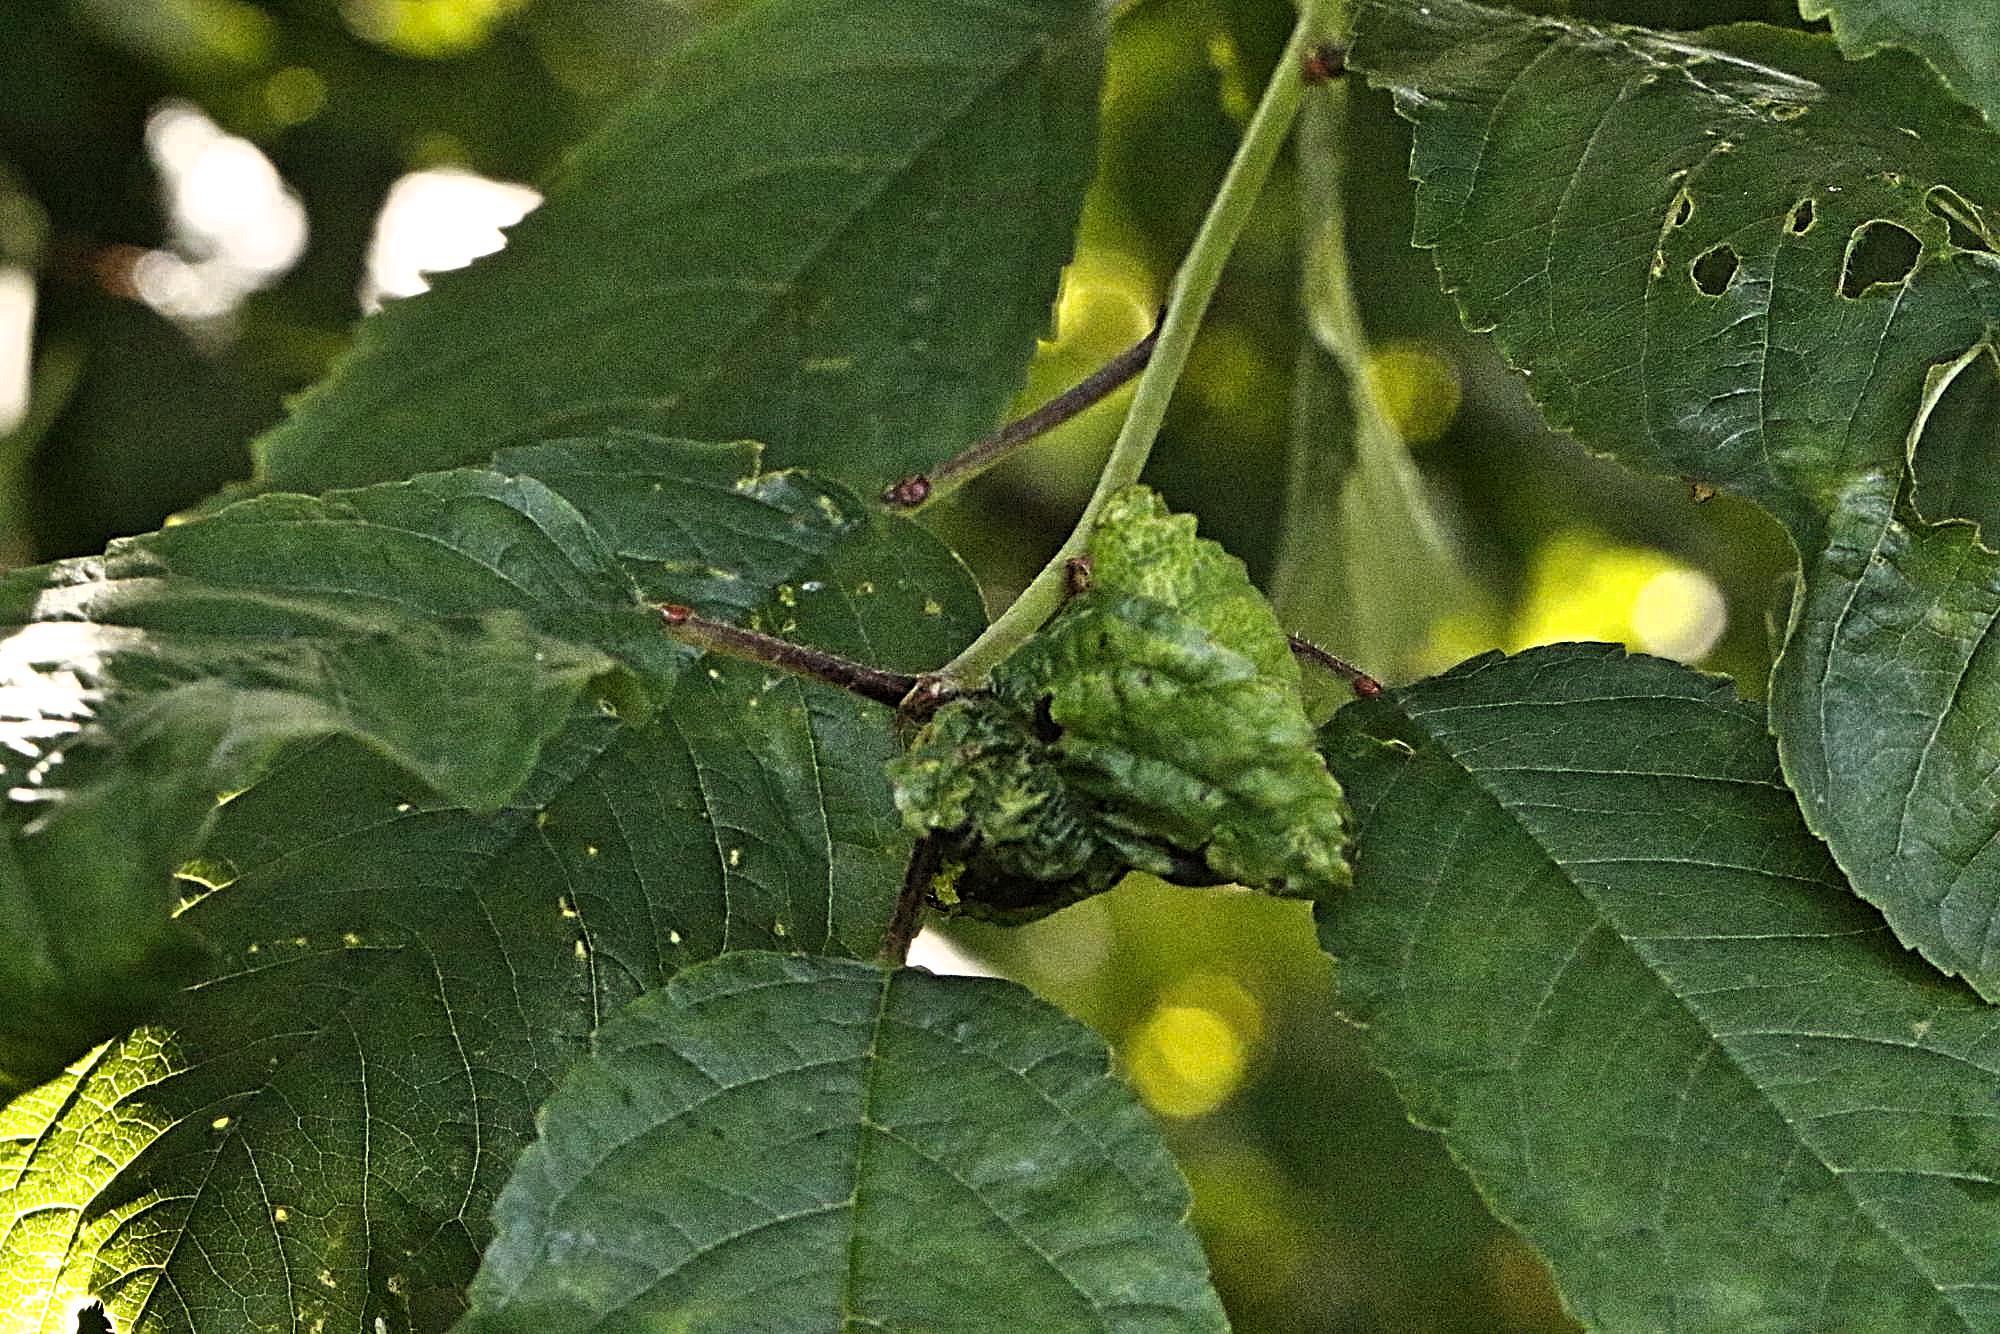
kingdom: Animalia
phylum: Arthropoda
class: Insecta
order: Hemiptera
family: Aphididae
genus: Myzus
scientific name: Myzus cerasi
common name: Black cherry aphid
